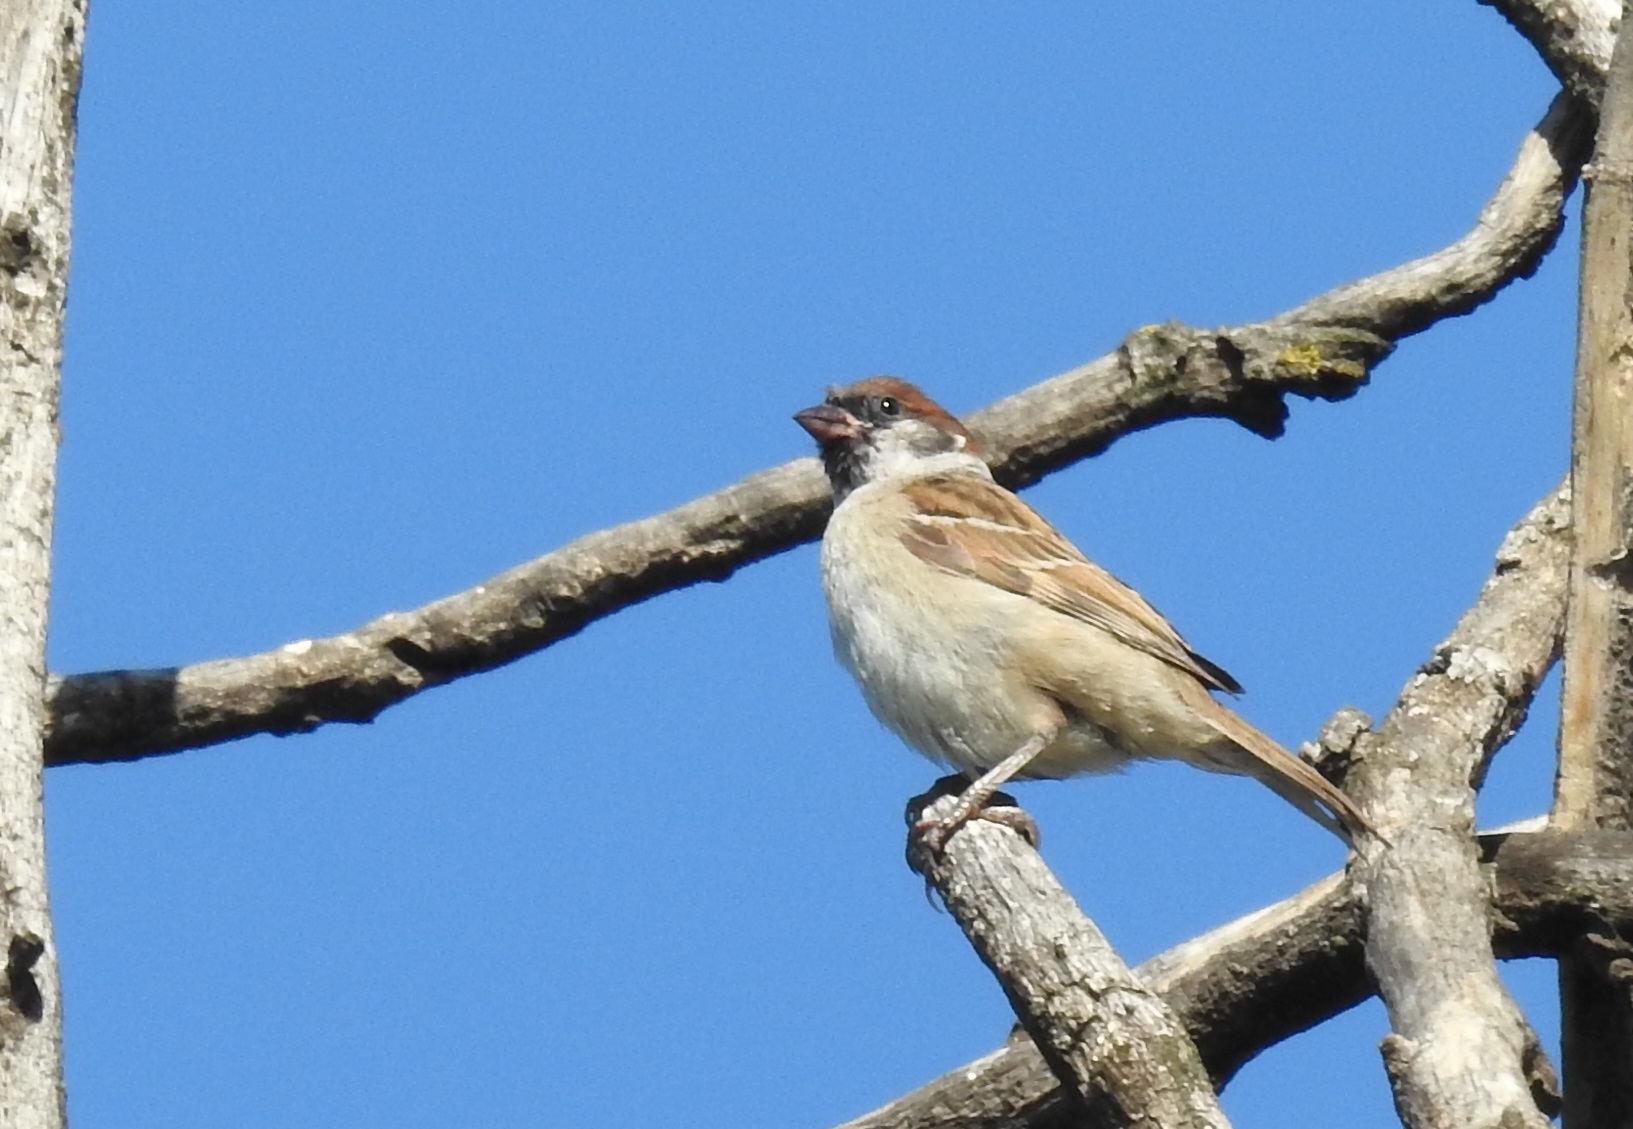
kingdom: Animalia
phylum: Chordata
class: Aves
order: Passeriformes
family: Passeridae
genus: Passer
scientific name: Passer montanus
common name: Eurasian tree sparrow
